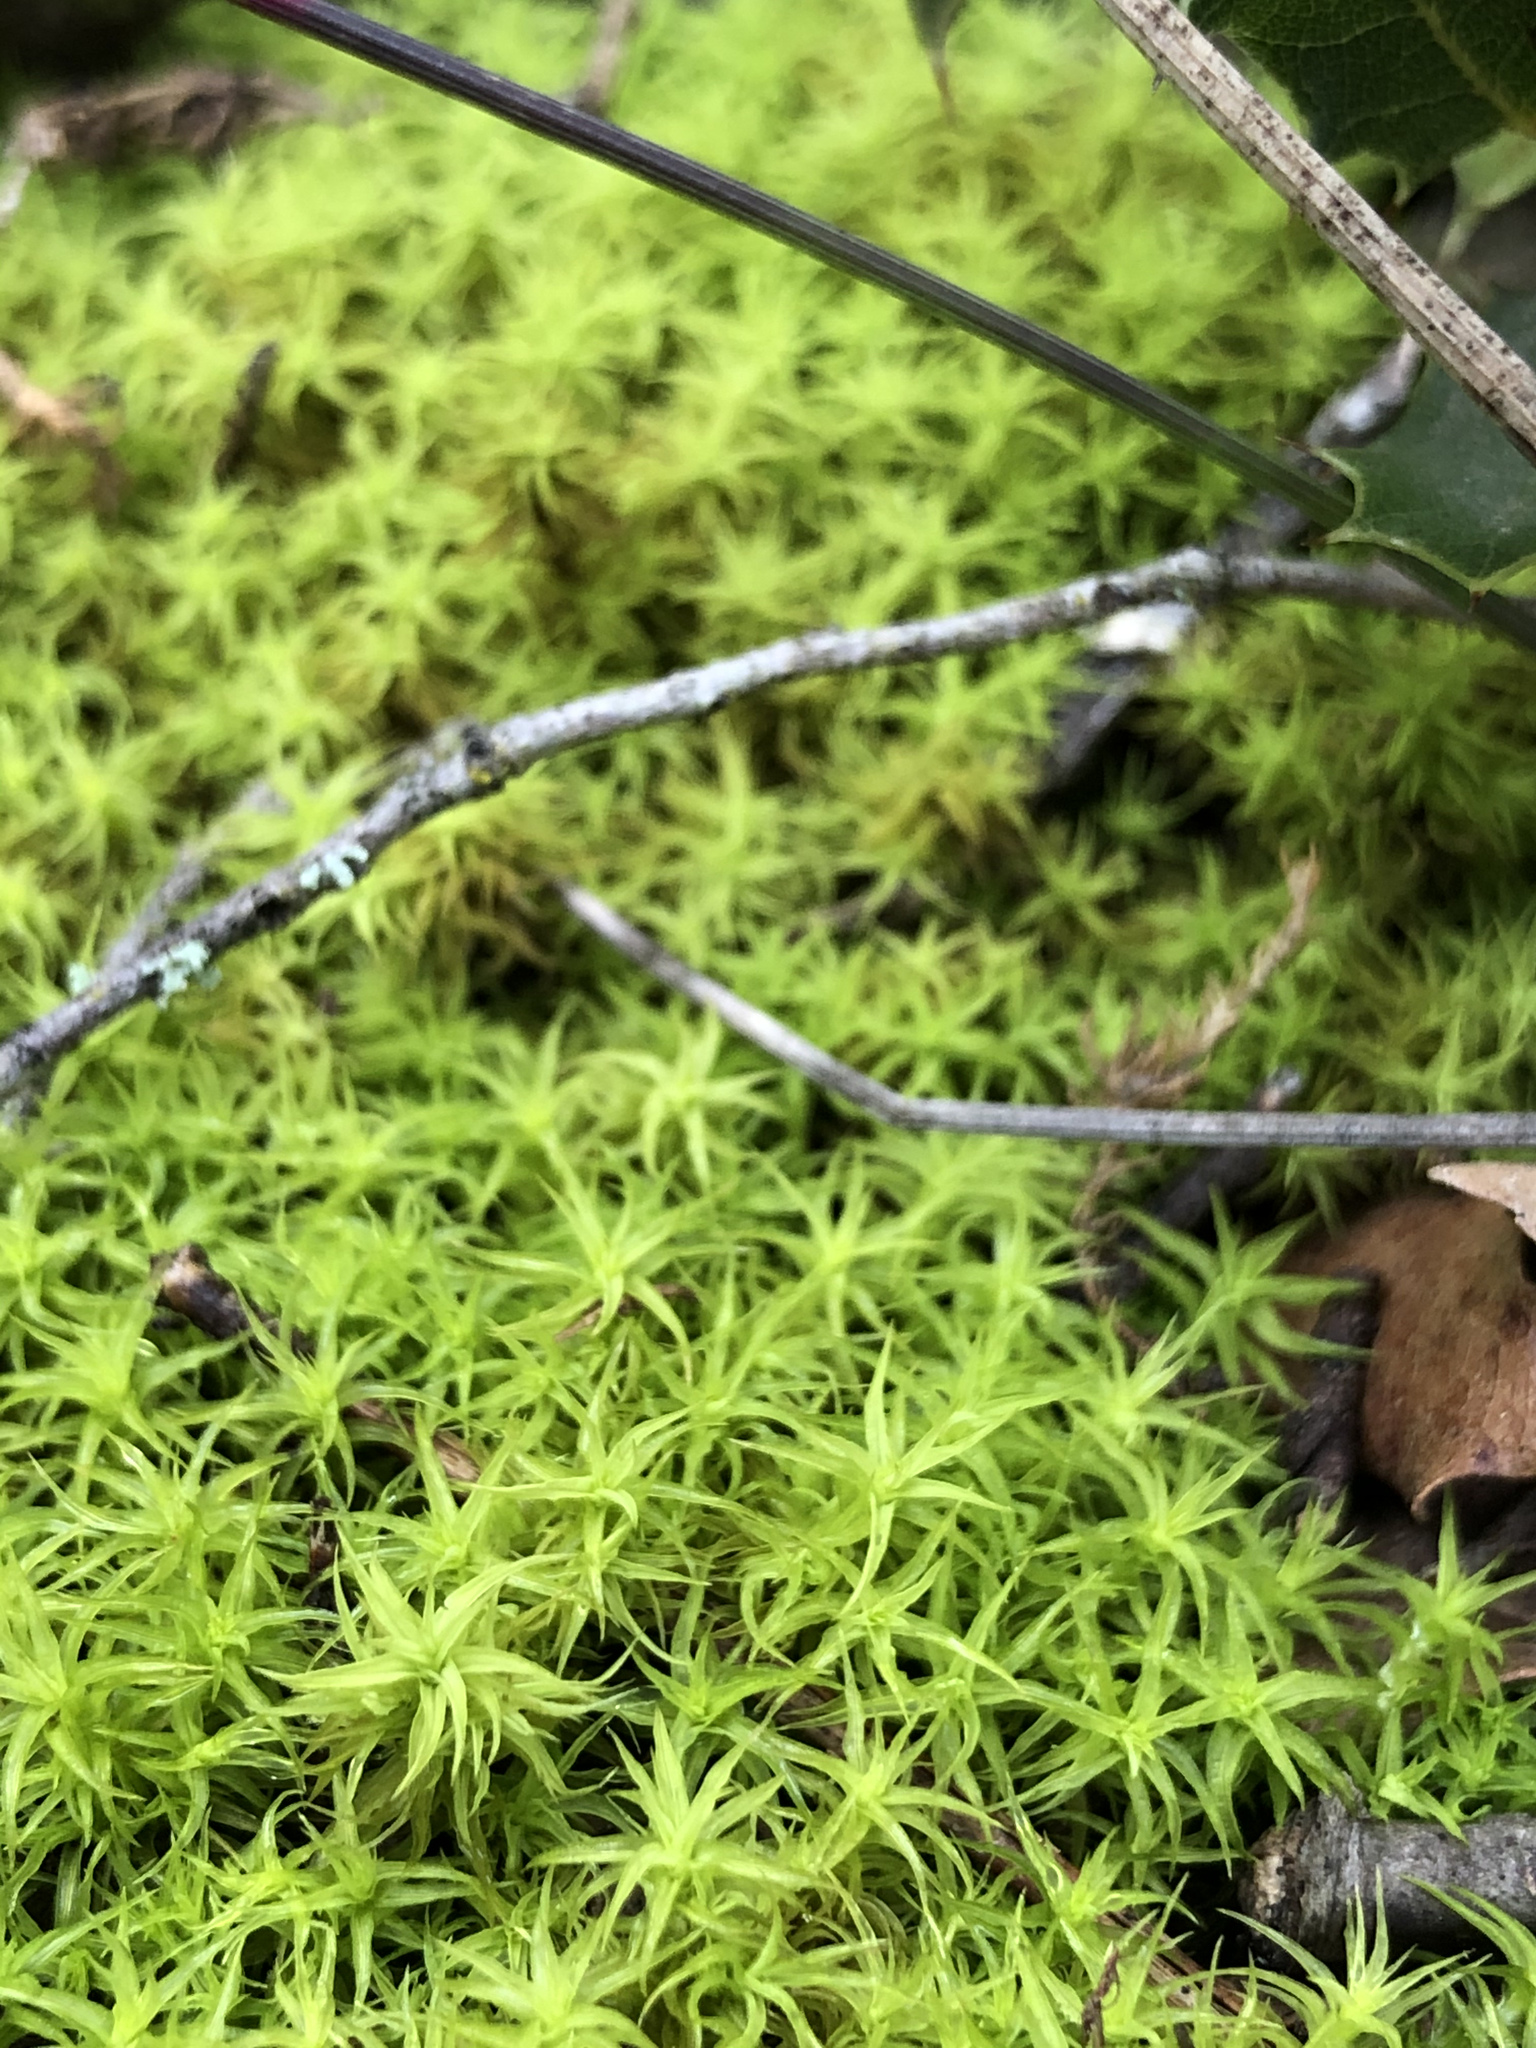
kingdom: Plantae
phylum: Bryophyta
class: Bryopsida
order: Pottiales
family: Pottiaceae
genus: Pleurochaete
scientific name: Pleurochaete squarrosa
